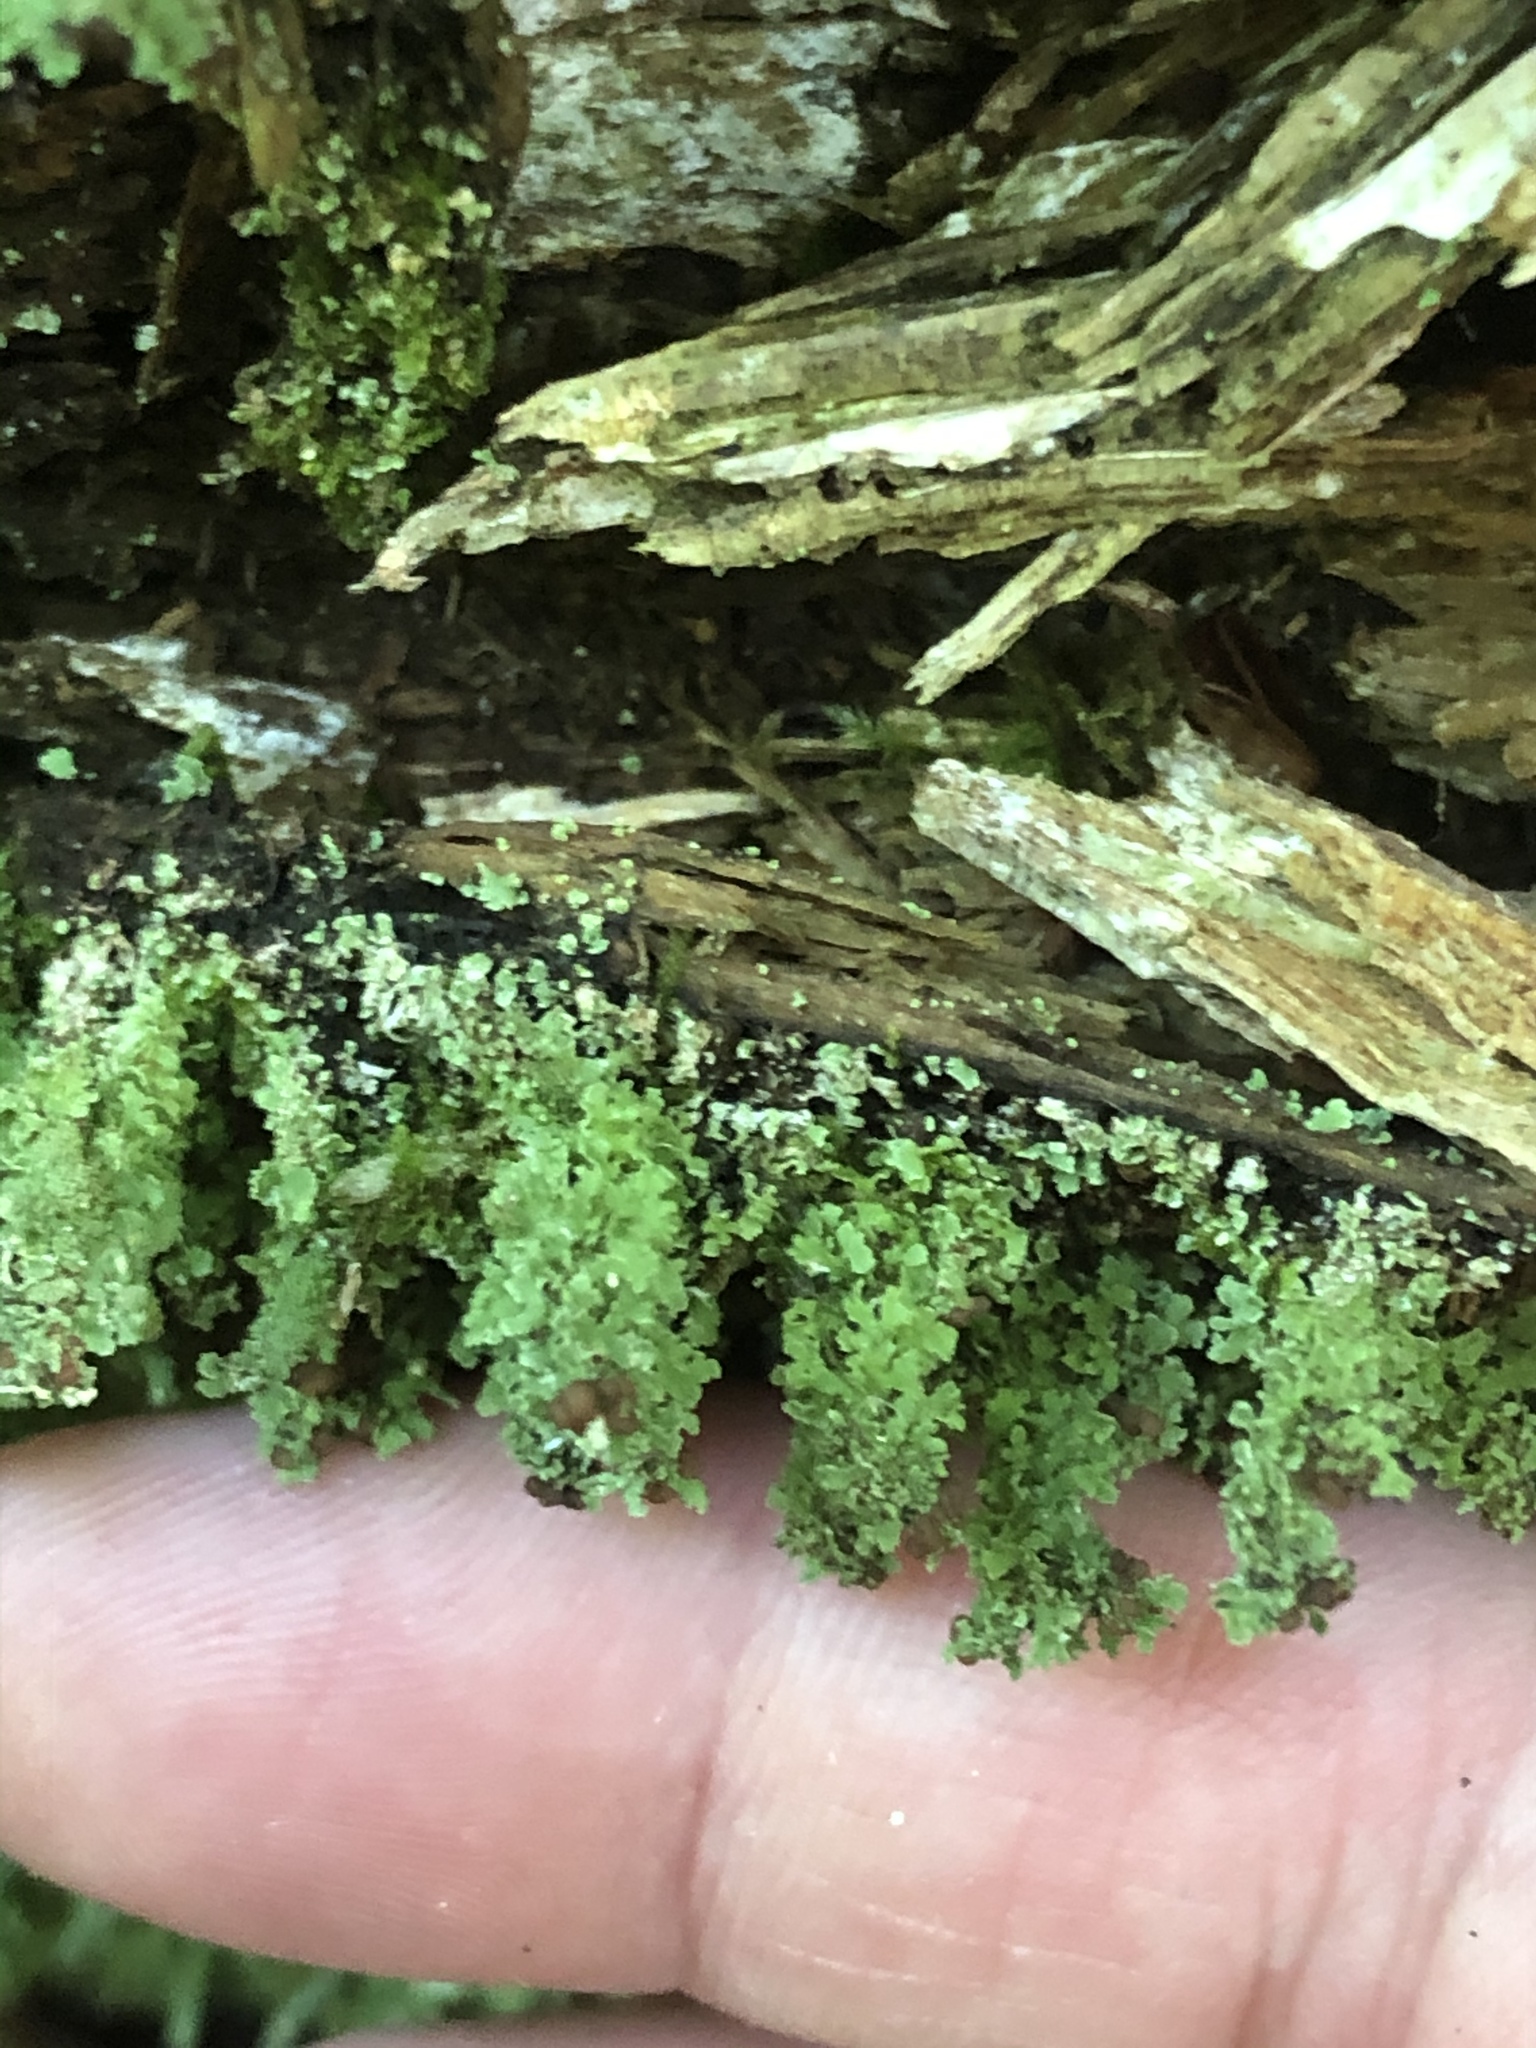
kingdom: Fungi
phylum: Ascomycota
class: Lecanoromycetes
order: Lecanorales
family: Cladoniaceae
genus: Cladonia
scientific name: Cladonia squamosa
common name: Dragon horn
